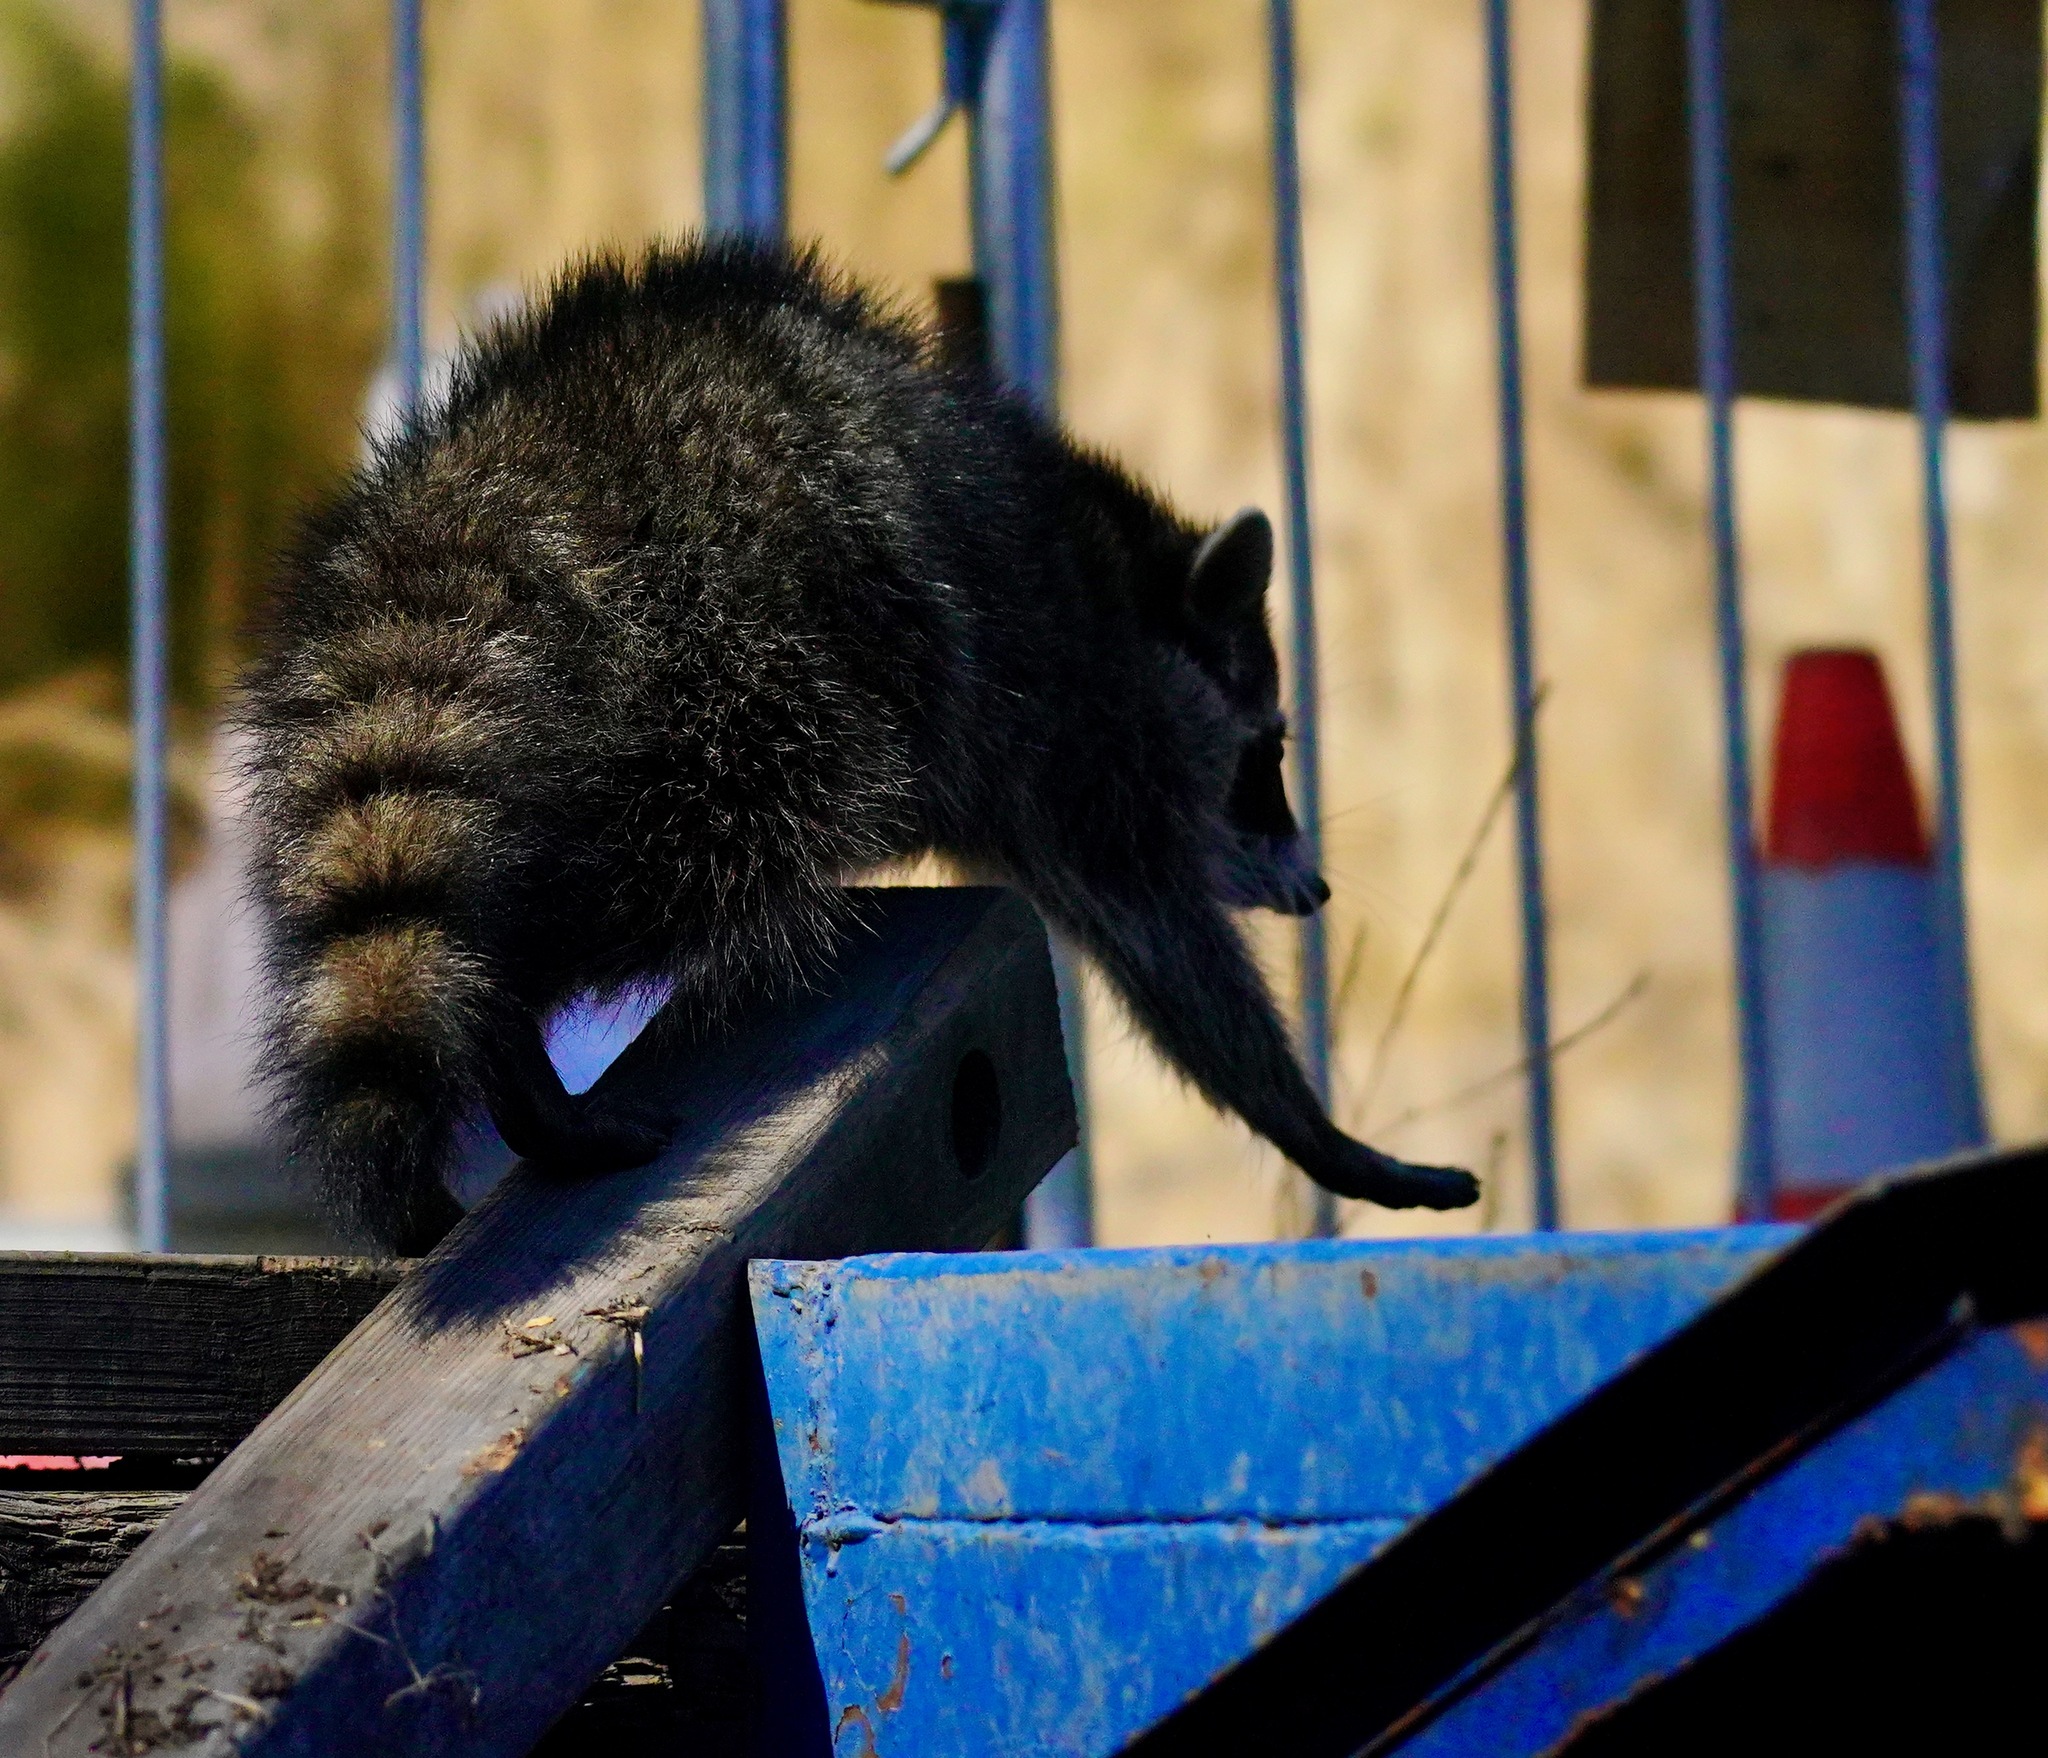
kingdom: Animalia
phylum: Chordata
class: Mammalia
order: Carnivora
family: Procyonidae
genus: Procyon
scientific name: Procyon lotor
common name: Raccoon
